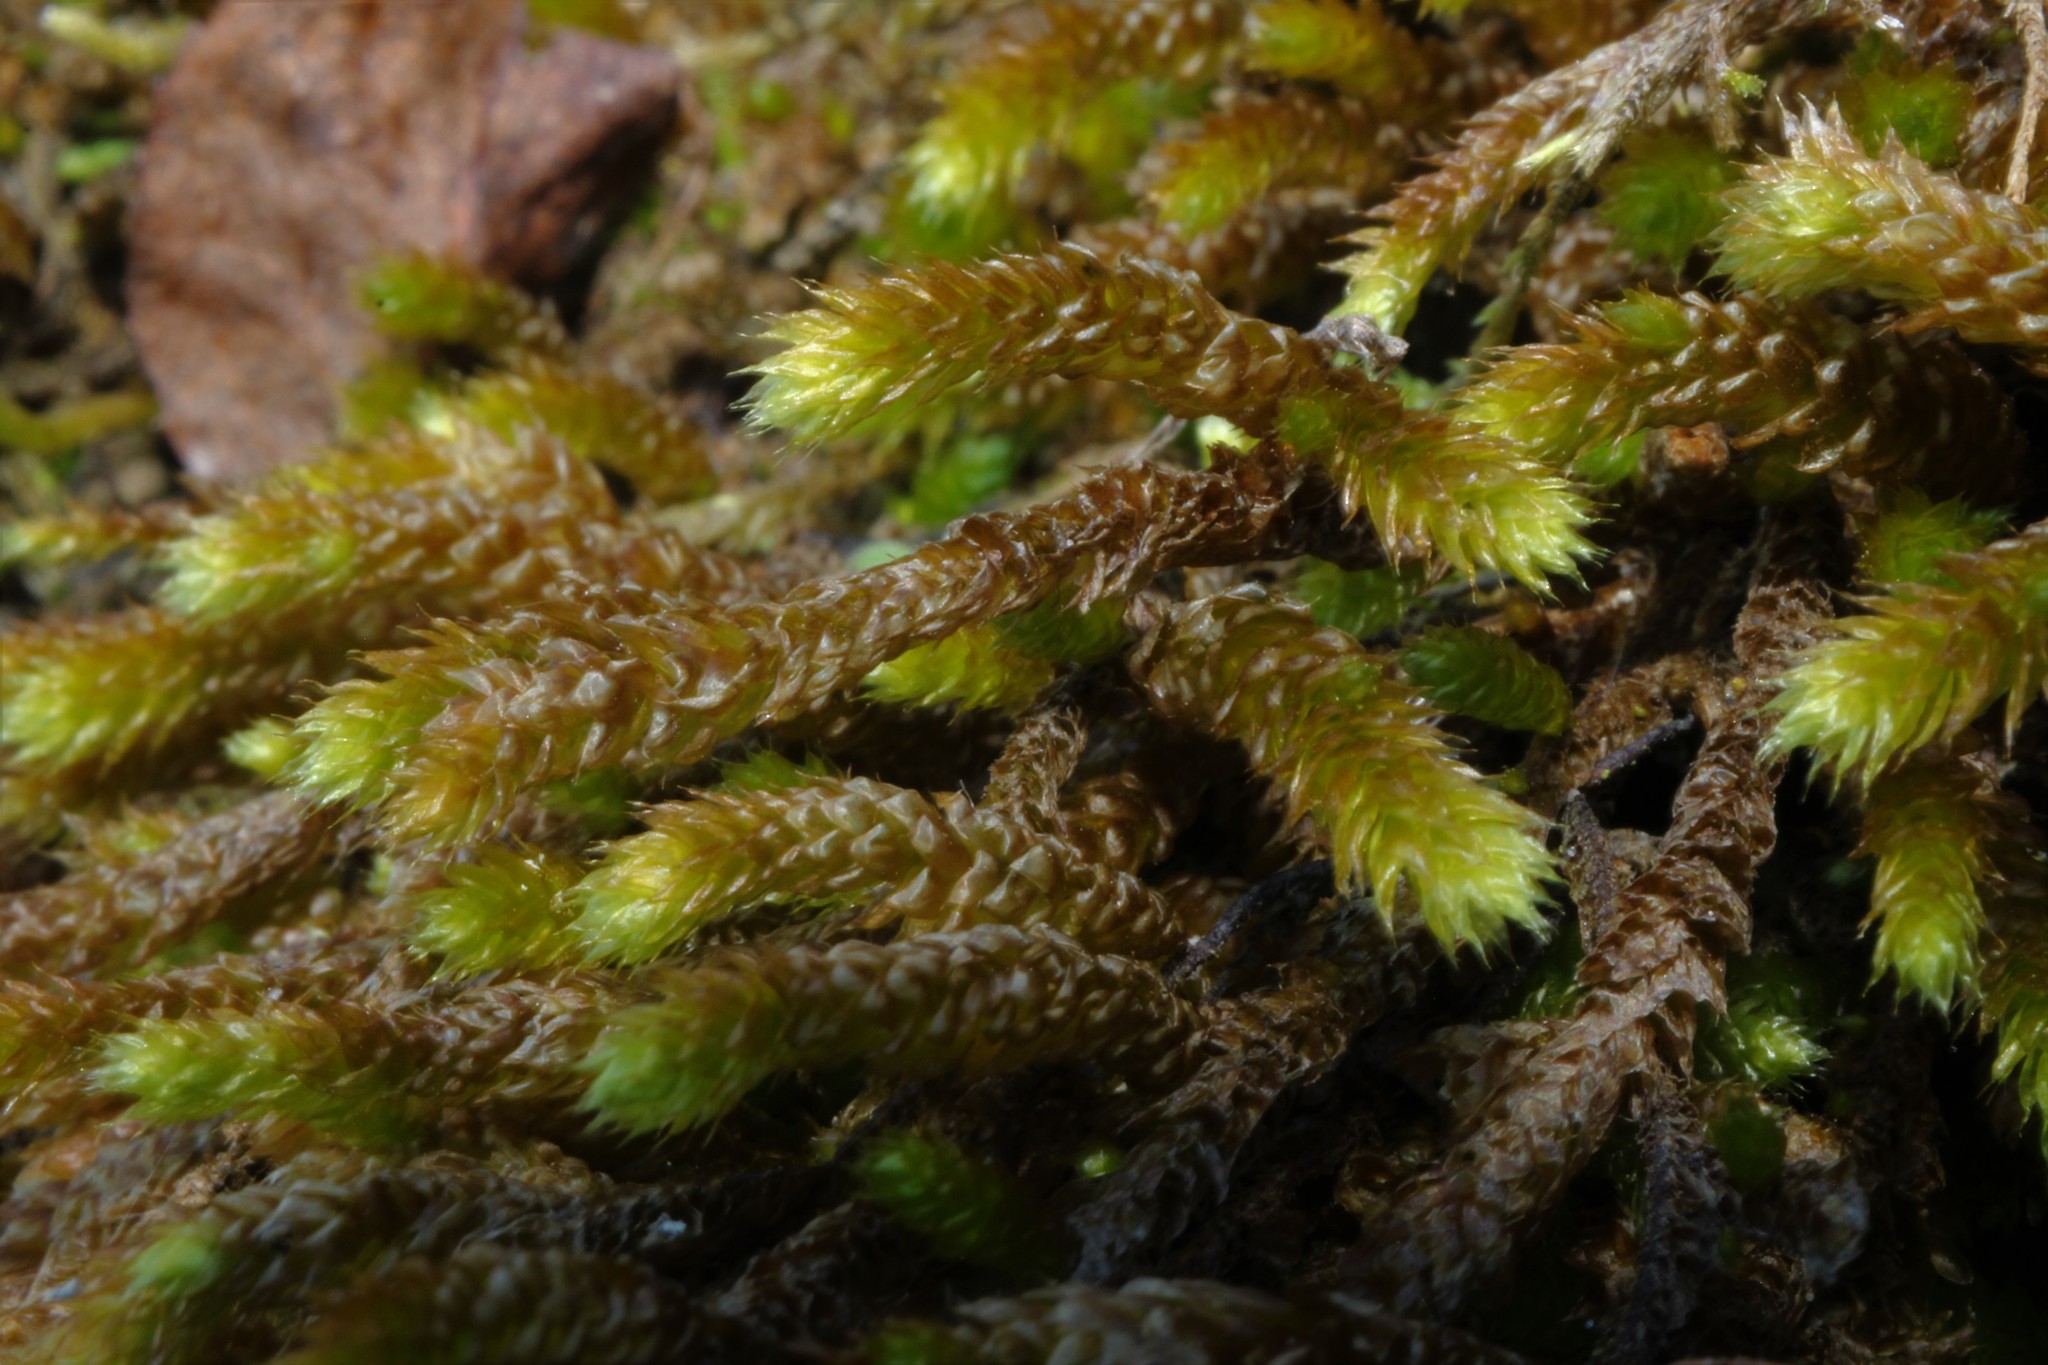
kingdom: Plantae
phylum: Bryophyta
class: Bryopsida
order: Hypnales
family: Brachytheciaceae
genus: Bryoandersonia
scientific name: Bryoandersonia illecebra
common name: Spoon-leaved moss
